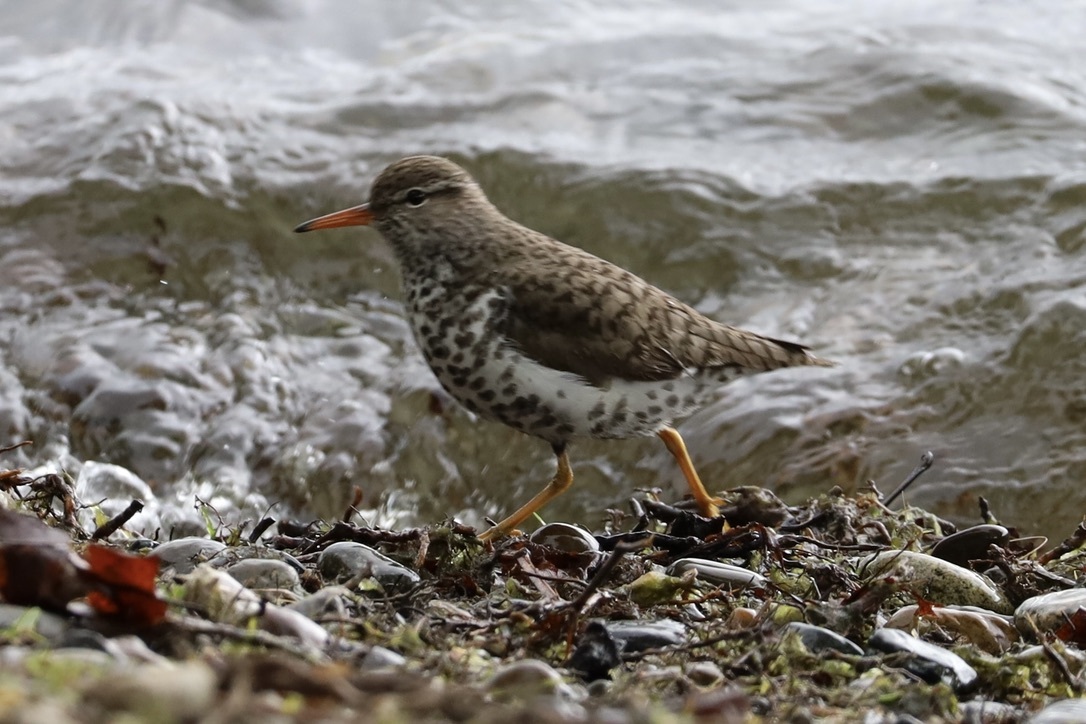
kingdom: Animalia
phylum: Chordata
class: Aves
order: Charadriiformes
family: Scolopacidae
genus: Actitis
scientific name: Actitis macularius
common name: Spotted sandpiper
